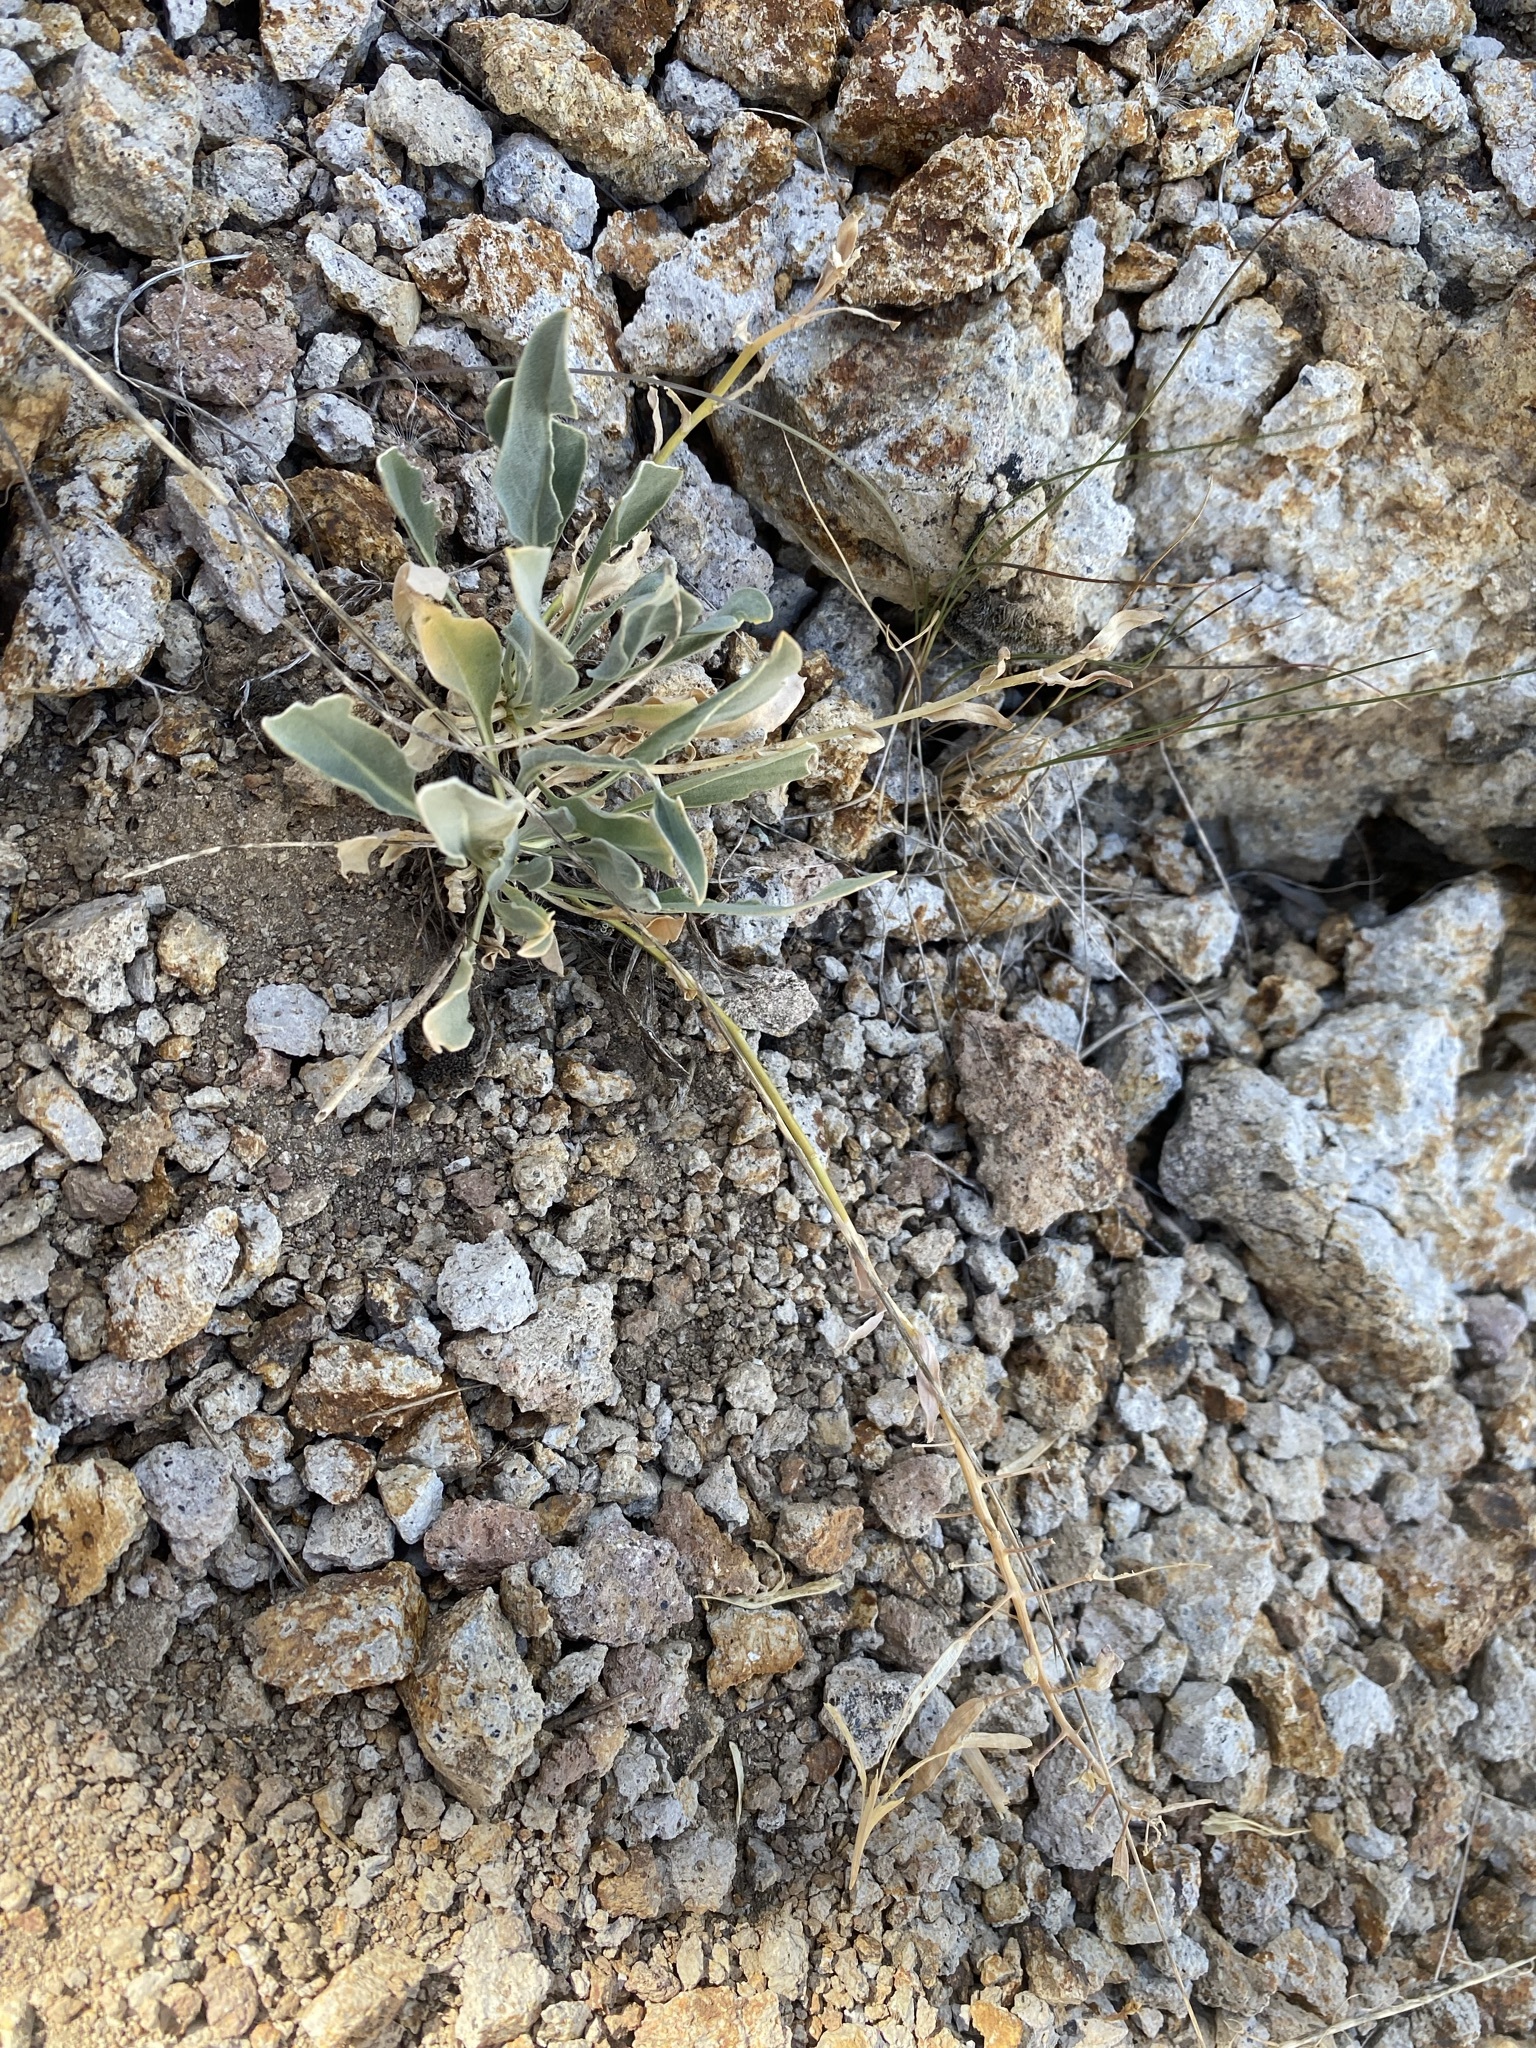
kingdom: Plantae
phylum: Tracheophyta
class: Magnoliopsida
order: Brassicales
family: Brassicaceae
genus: Phoenicaulis
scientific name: Phoenicaulis cheiranthoides
